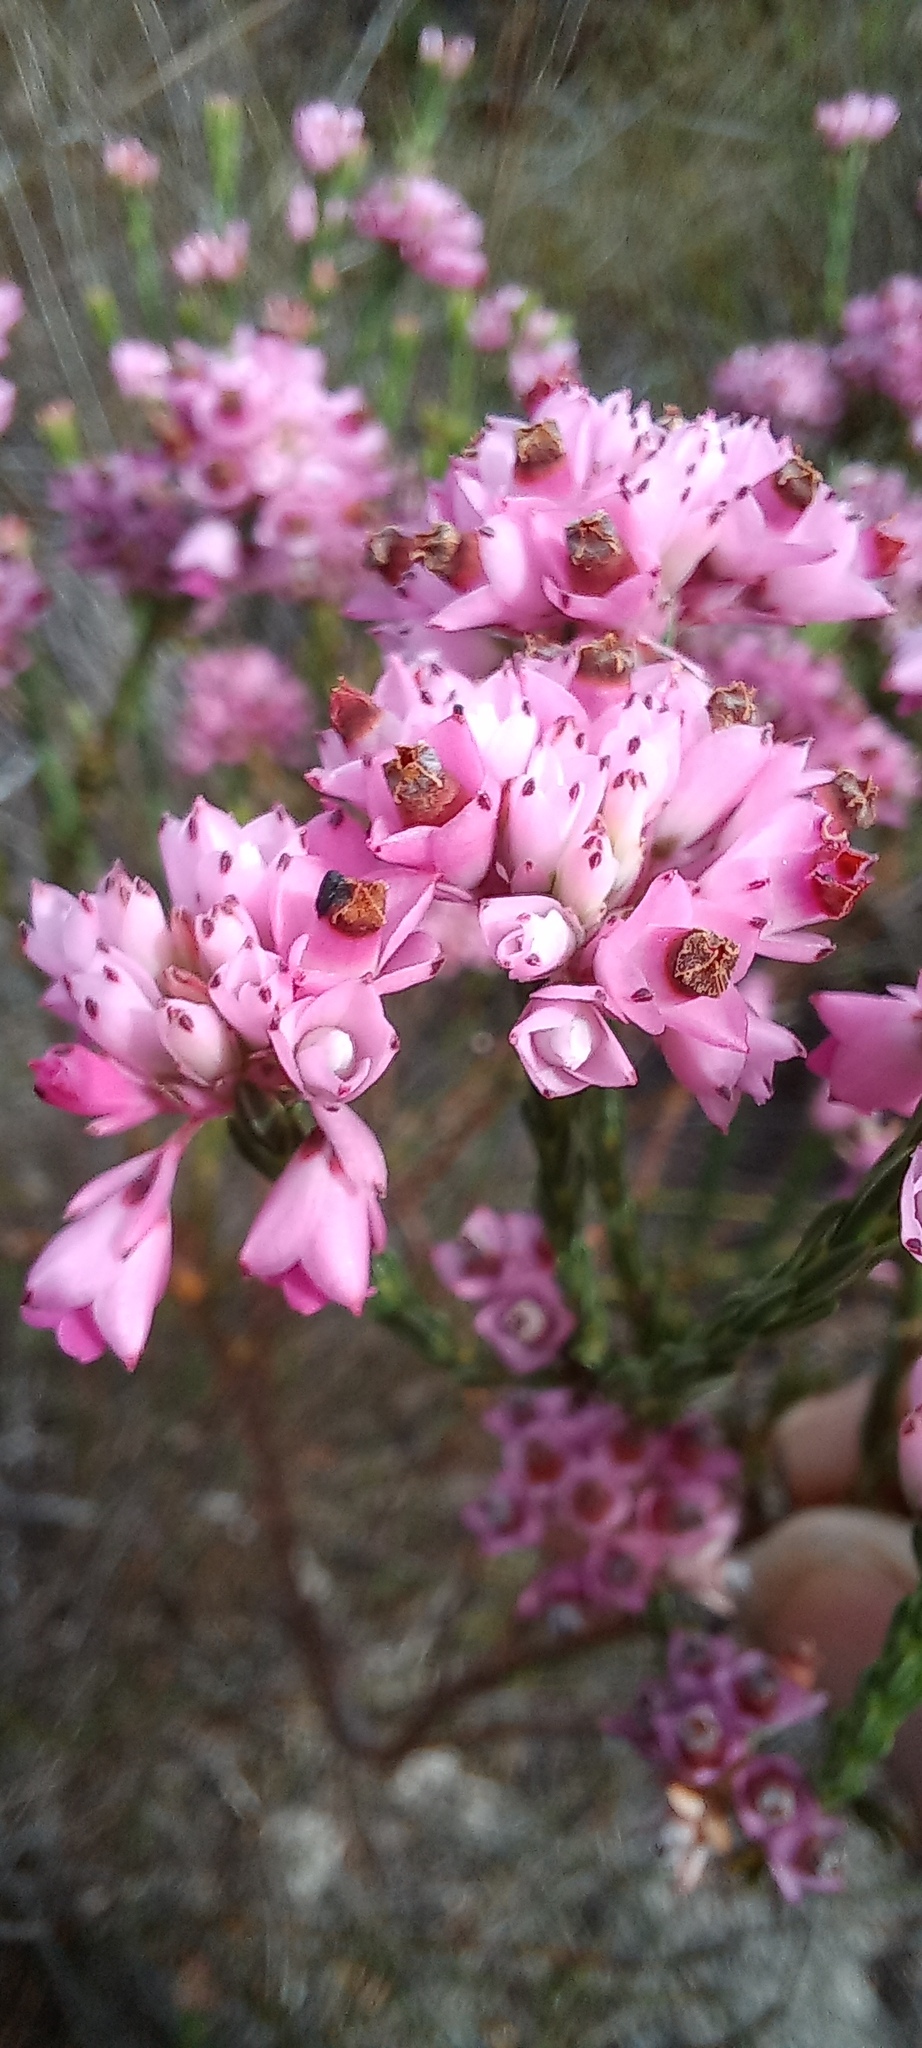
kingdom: Plantae
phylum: Tracheophyta
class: Magnoliopsida
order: Ericales
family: Ericaceae
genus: Erica
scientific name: Erica corifolia
